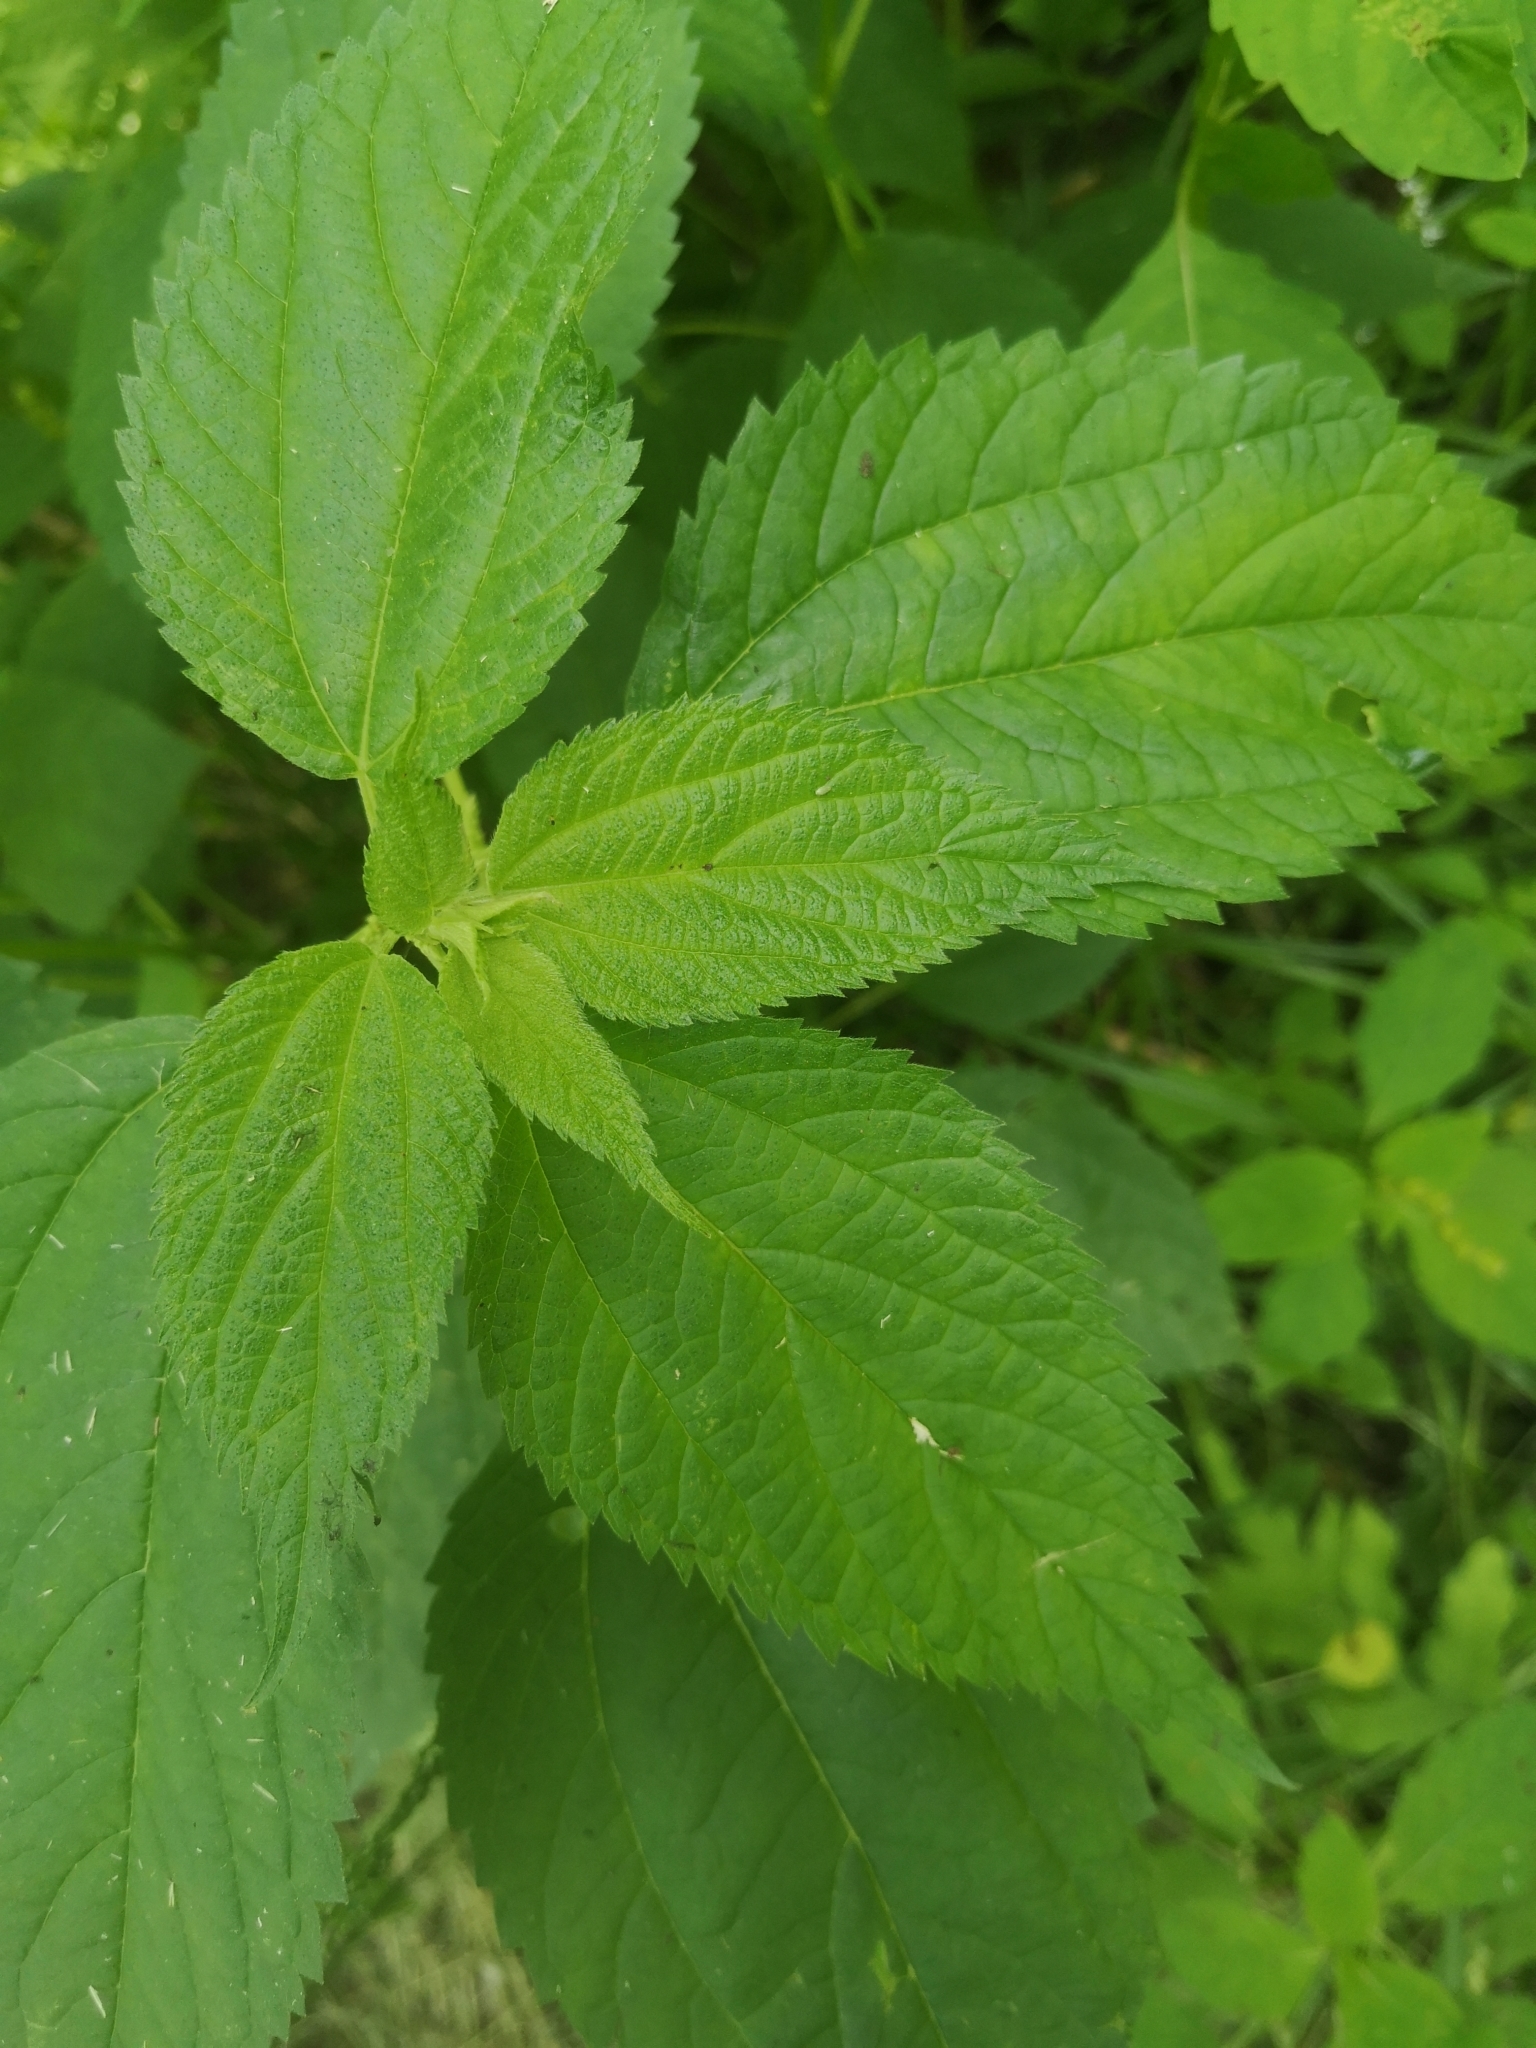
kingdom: Plantae
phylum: Tracheophyta
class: Magnoliopsida
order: Rosales
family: Urticaceae
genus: Boehmeria
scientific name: Boehmeria cylindrica
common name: Bog-hemp
